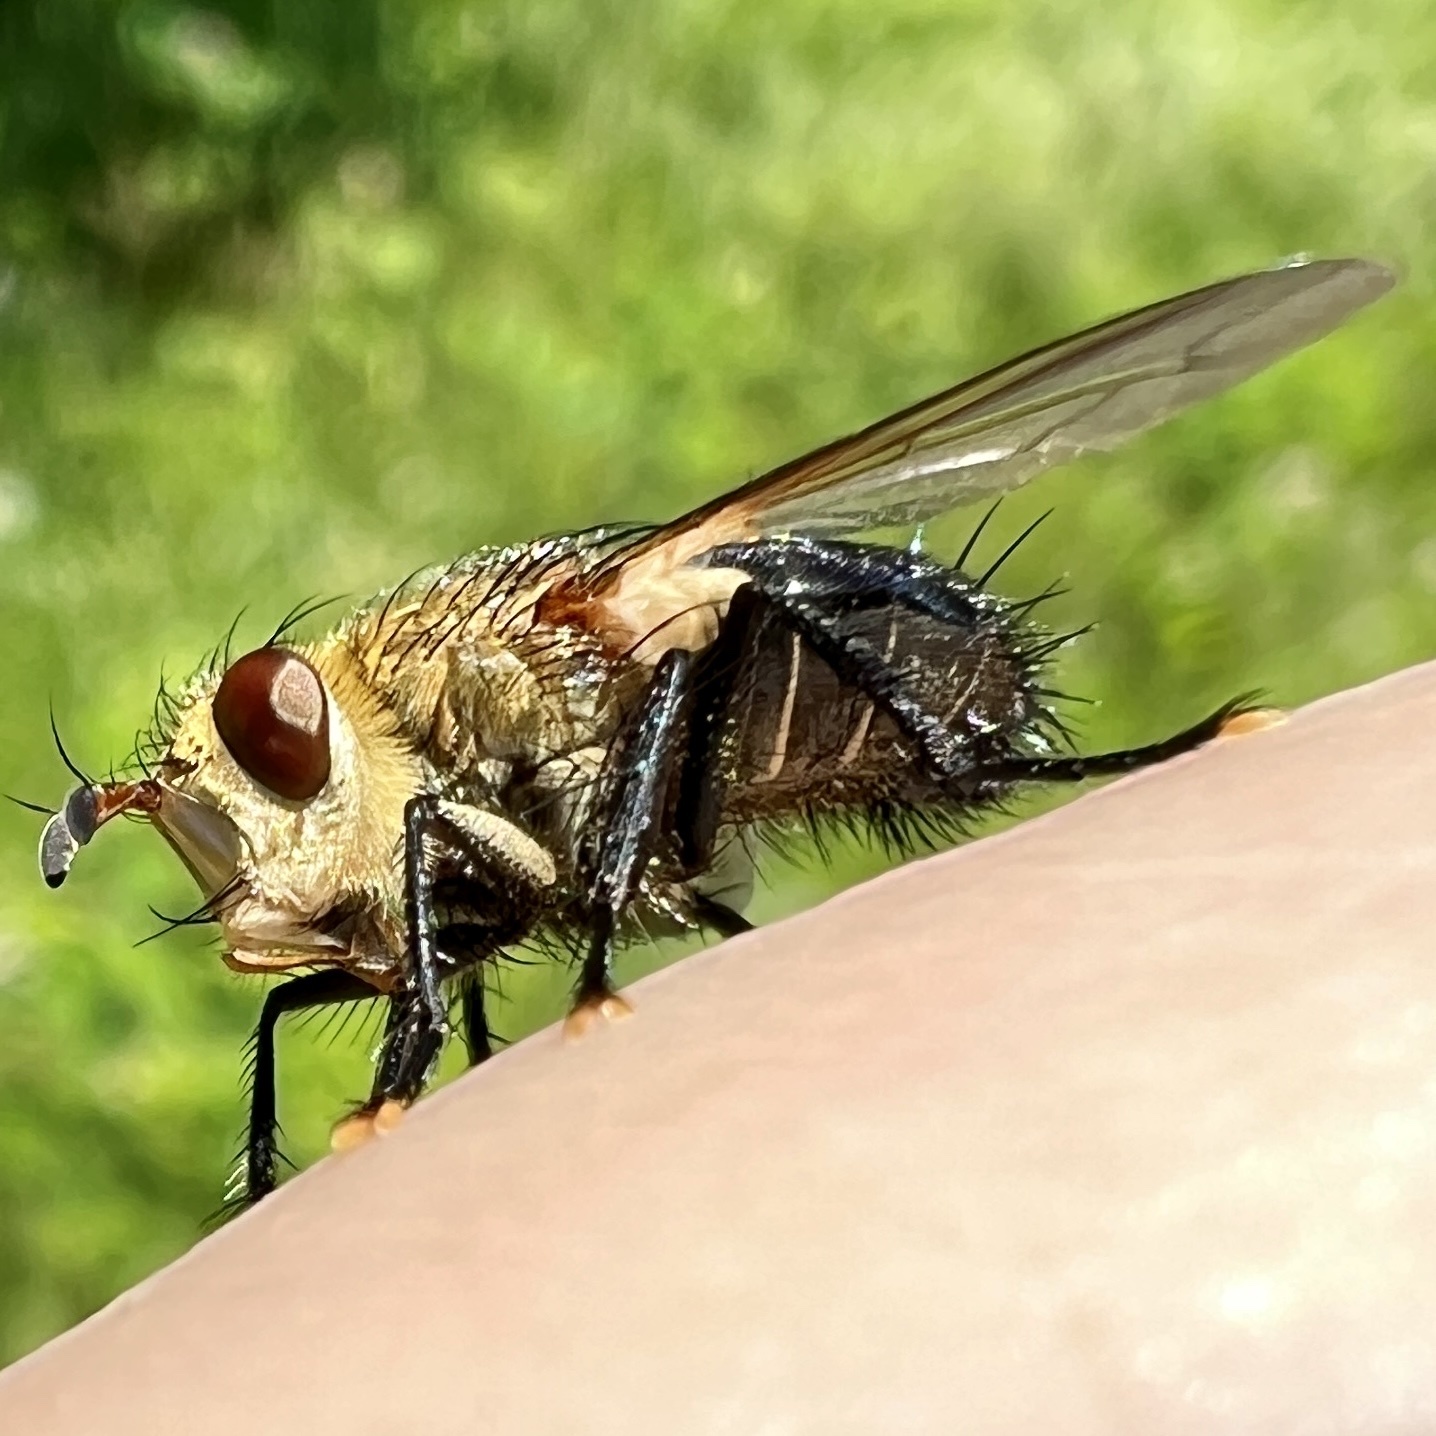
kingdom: Animalia
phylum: Arthropoda
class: Insecta
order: Diptera
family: Tachinidae
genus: Archytas
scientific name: Archytas apicifer
